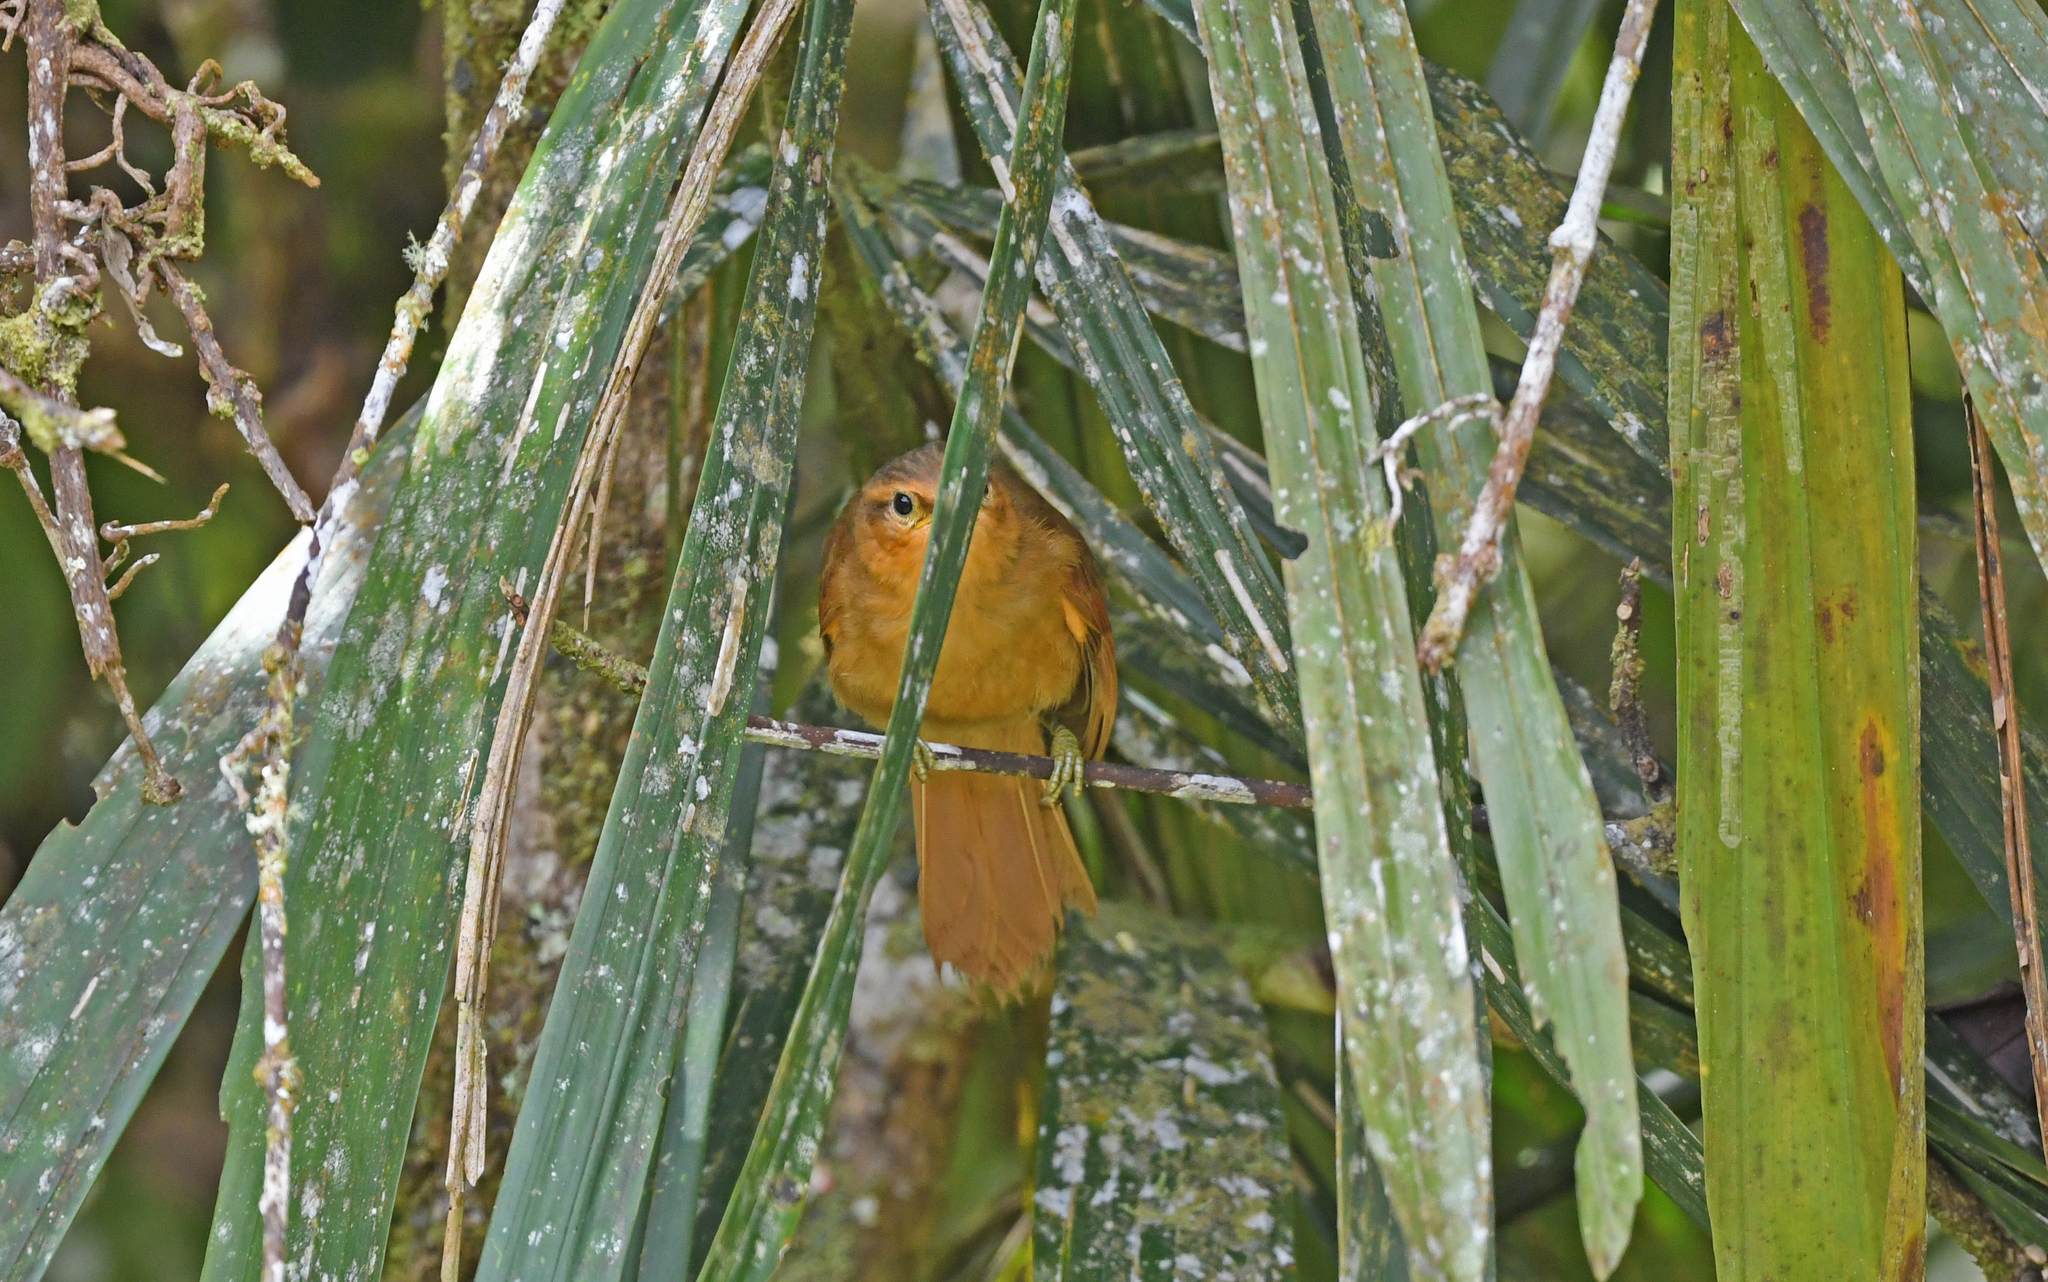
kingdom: Animalia
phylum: Chordata
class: Aves
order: Passeriformes
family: Furnariidae
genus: Philydor
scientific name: Philydor rufum
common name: Buff-fronted foliage-gleaner
